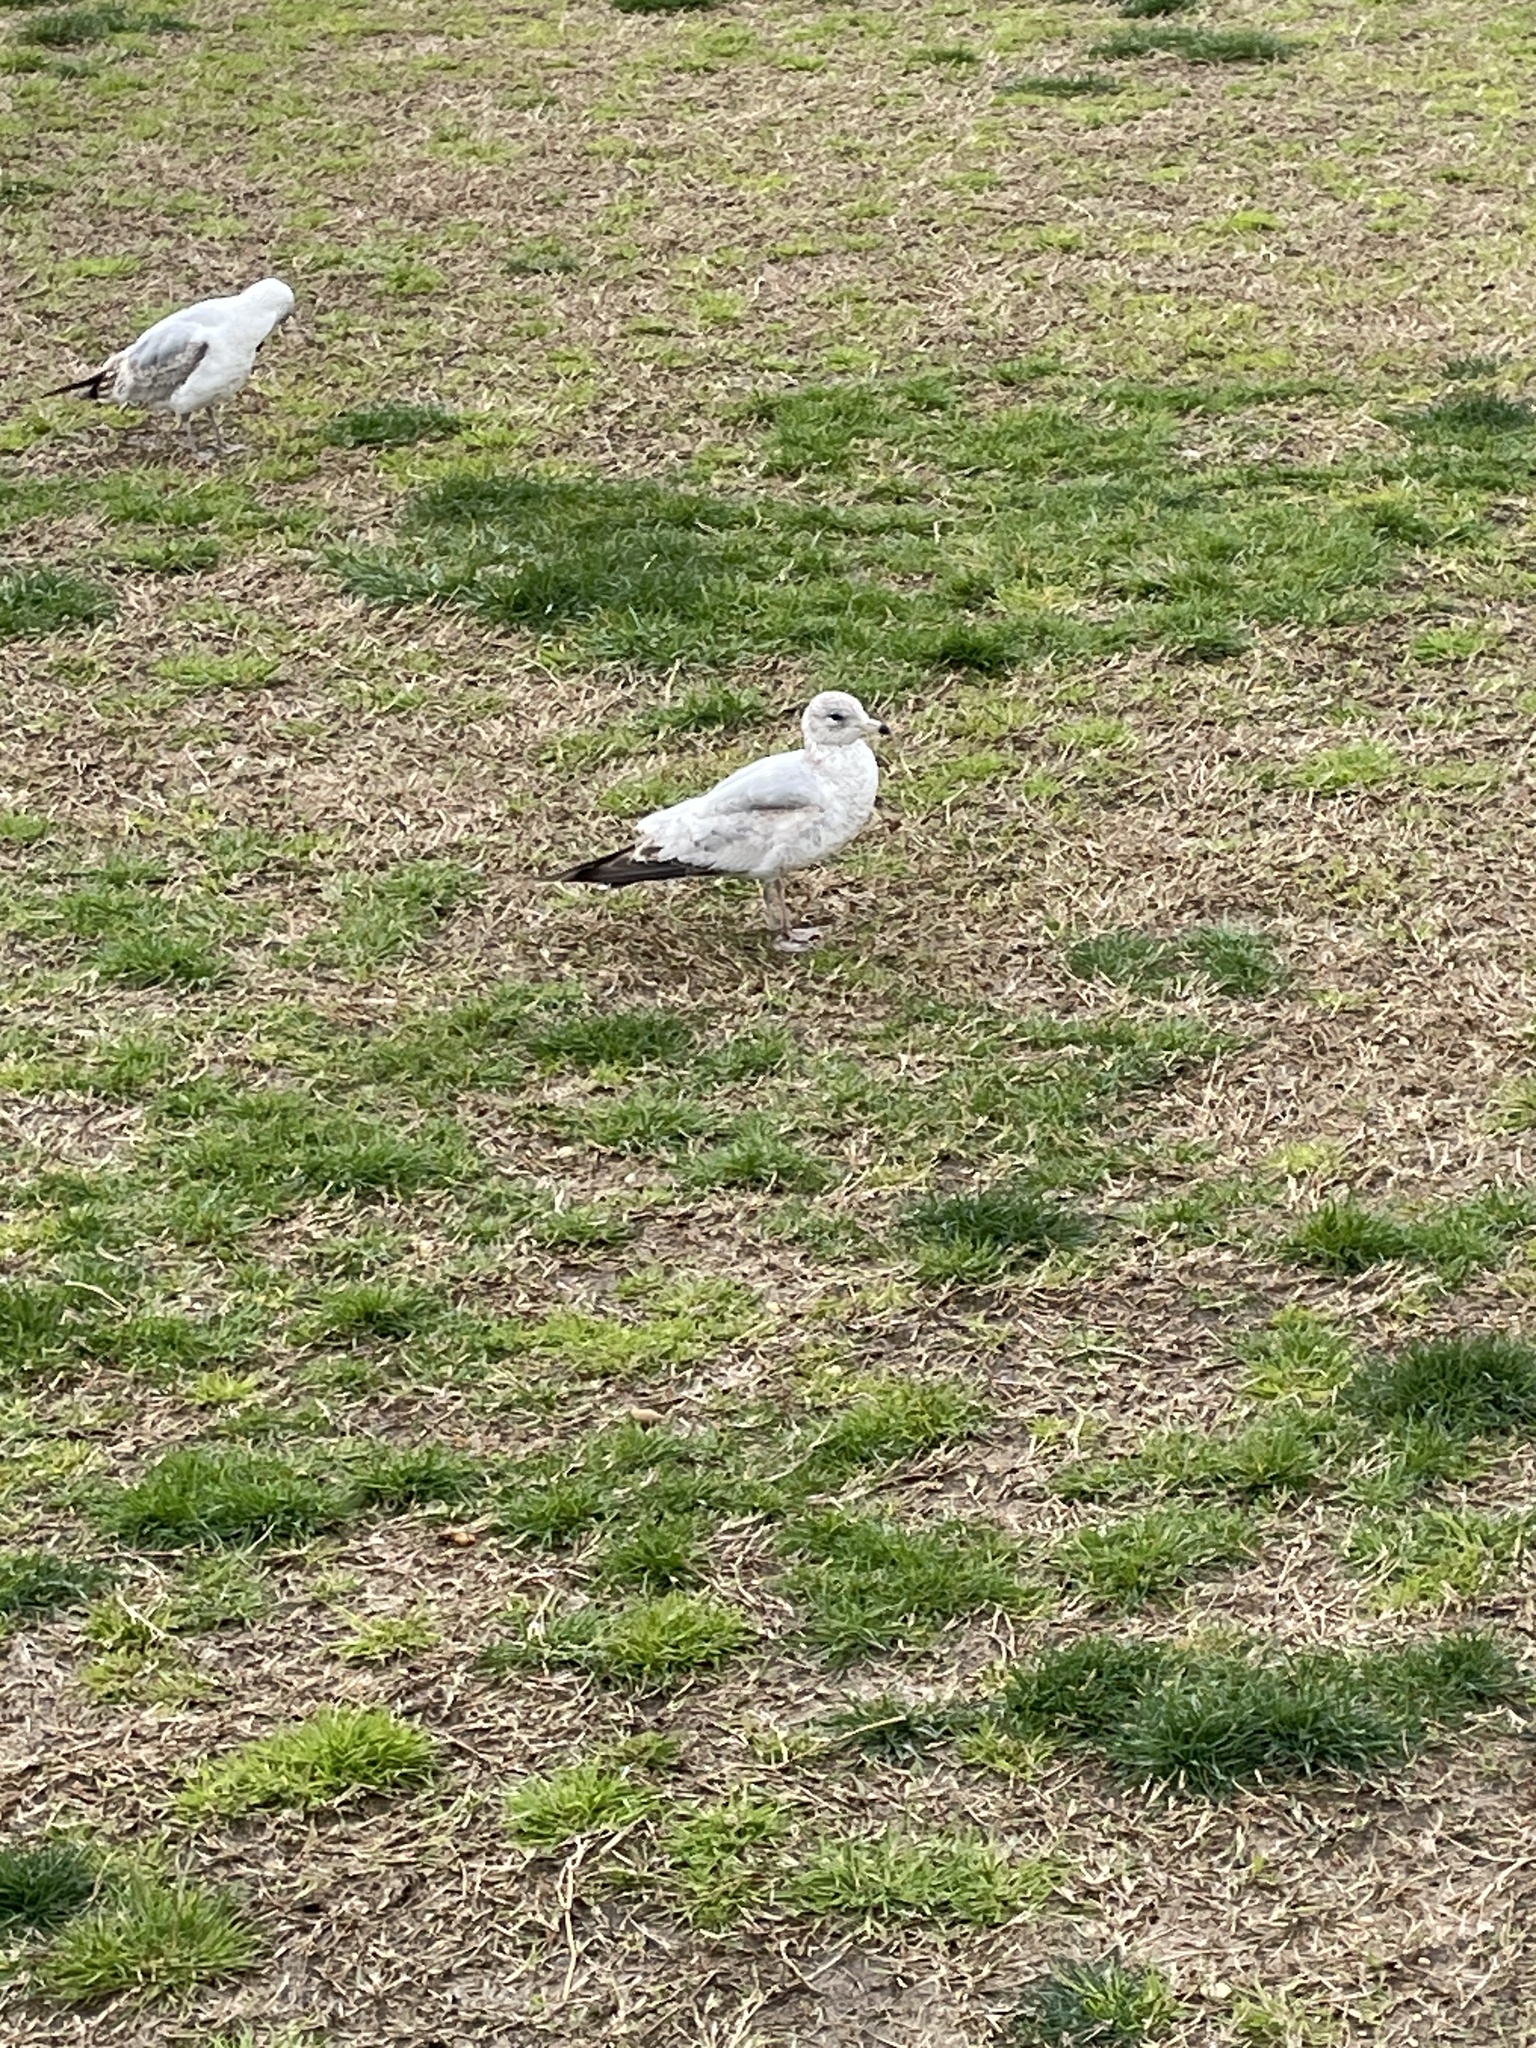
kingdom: Animalia
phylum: Chordata
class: Aves
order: Charadriiformes
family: Laridae
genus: Larus
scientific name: Larus delawarensis
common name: Ring-billed gull
